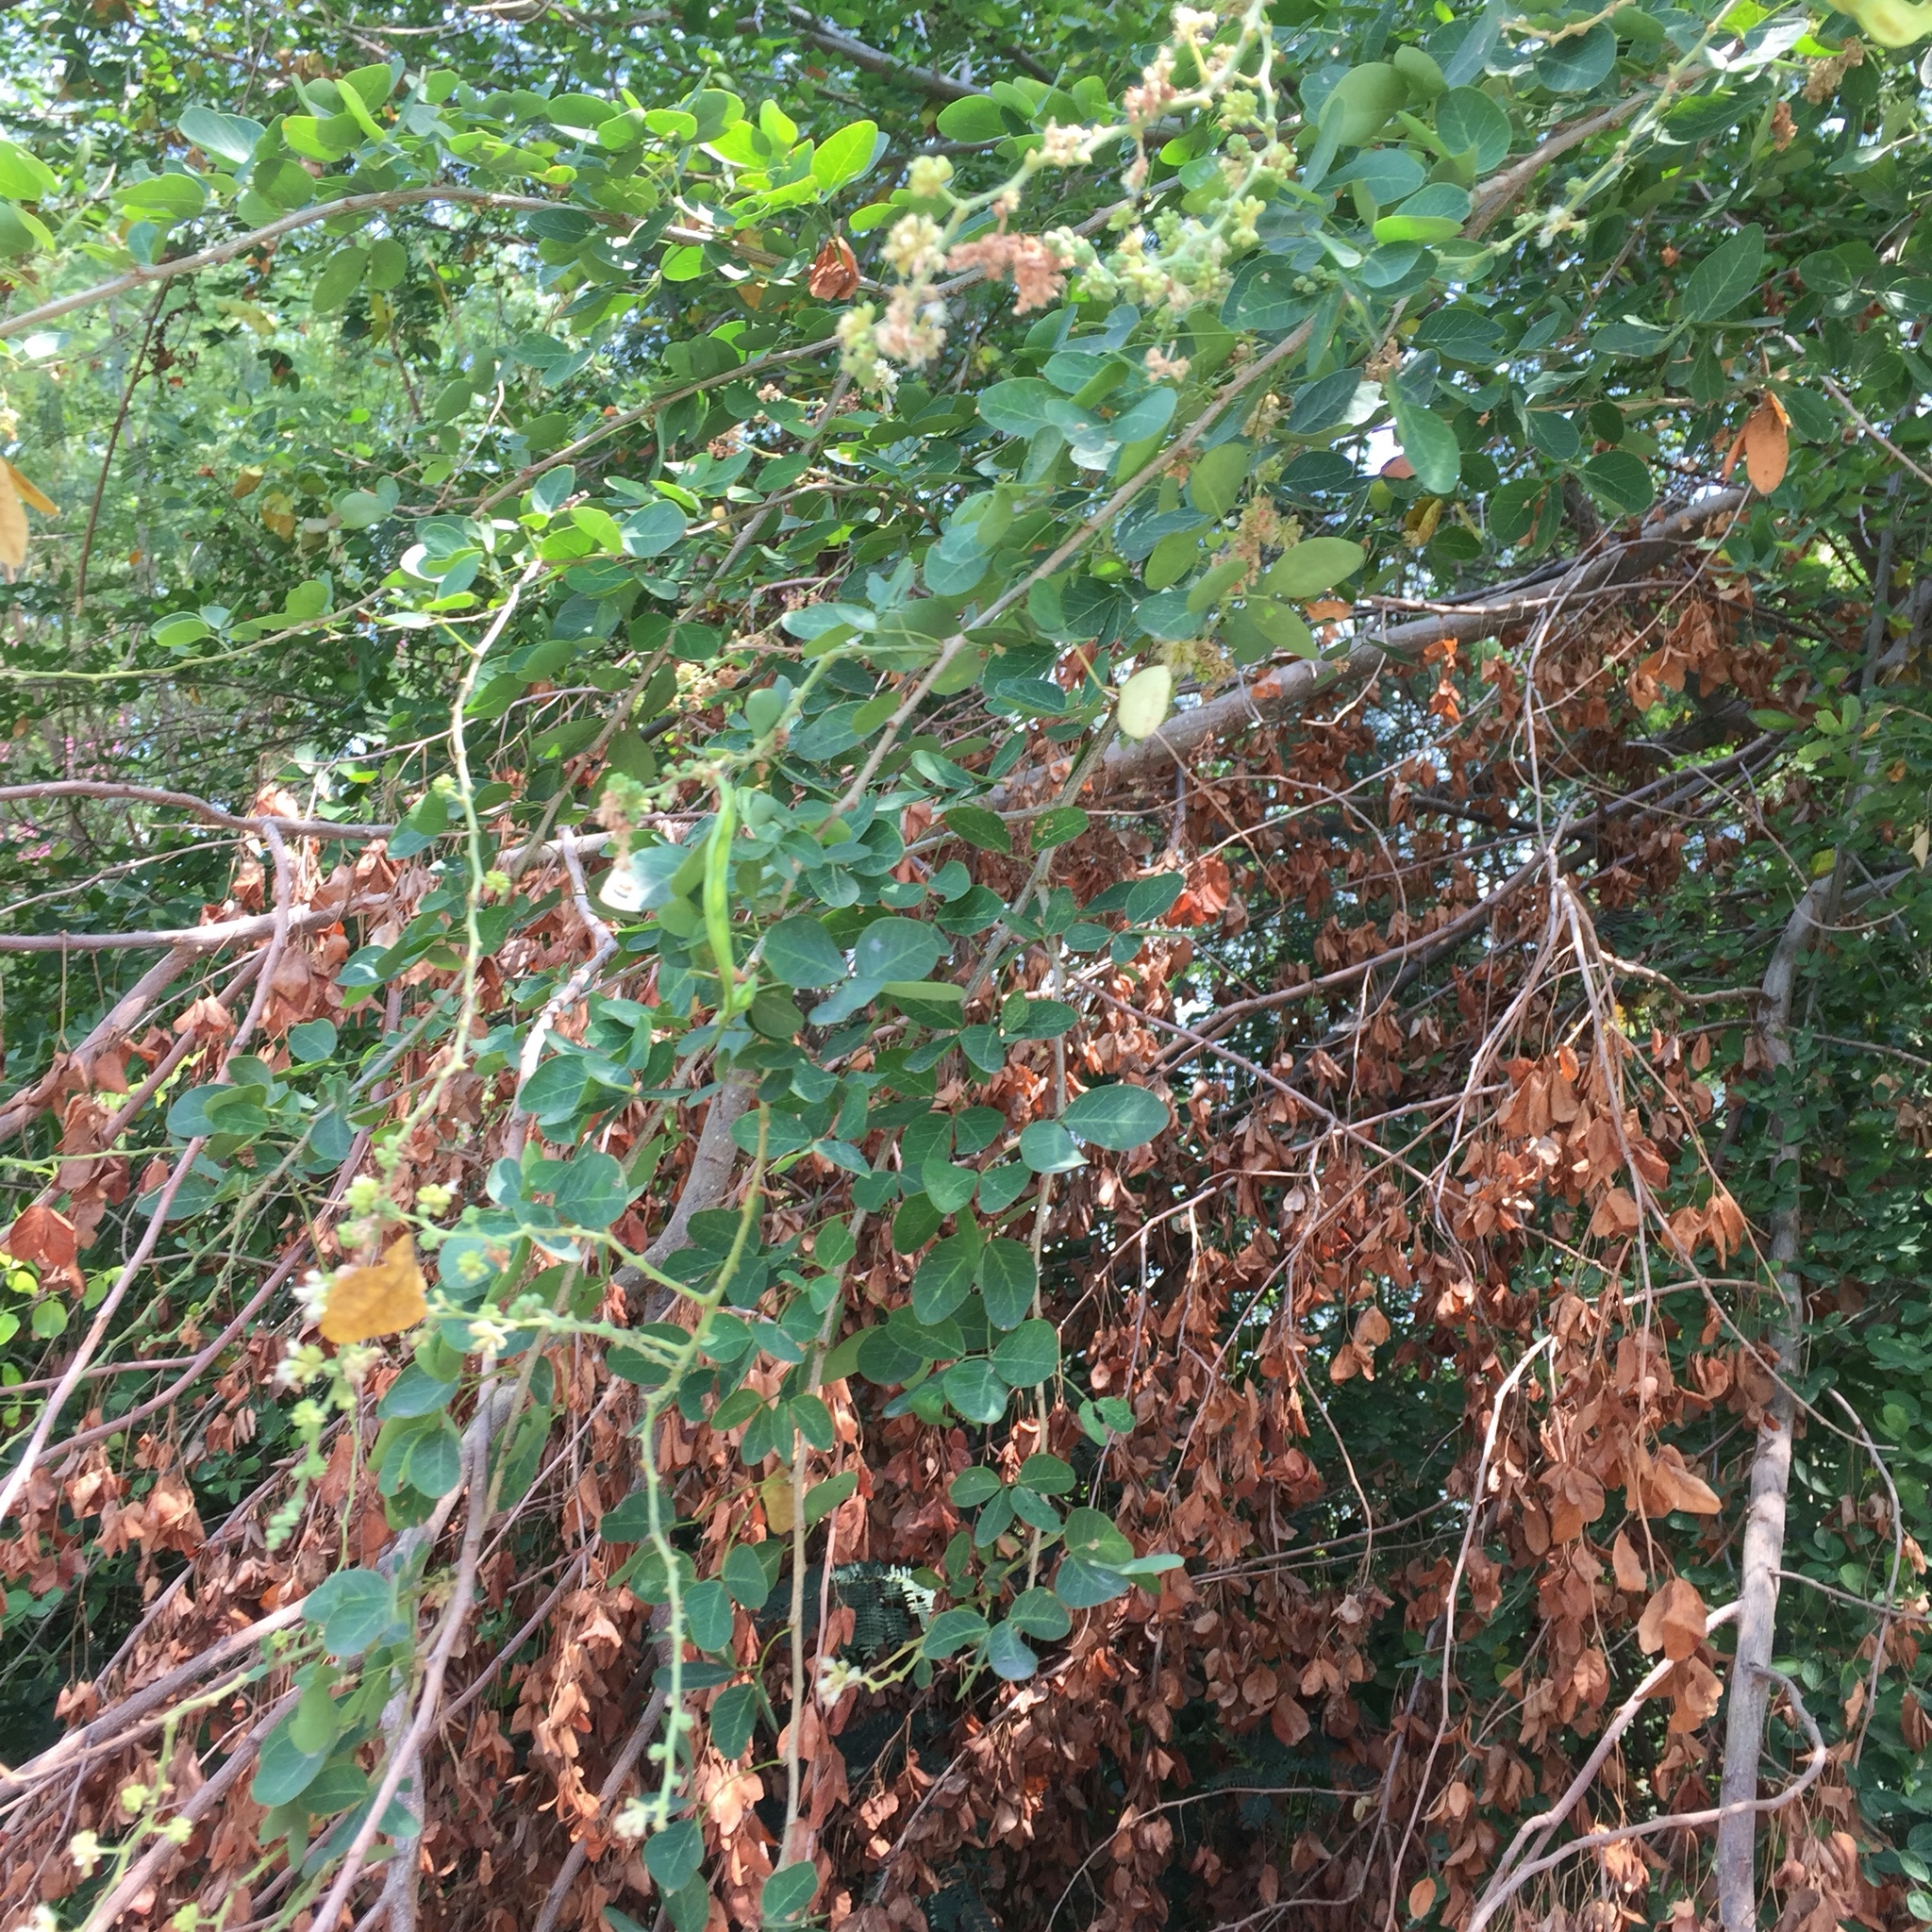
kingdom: Plantae
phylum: Tracheophyta
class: Magnoliopsida
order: Fabales
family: Fabaceae
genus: Pithecellobium
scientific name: Pithecellobium dulce
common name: Monkeypod
